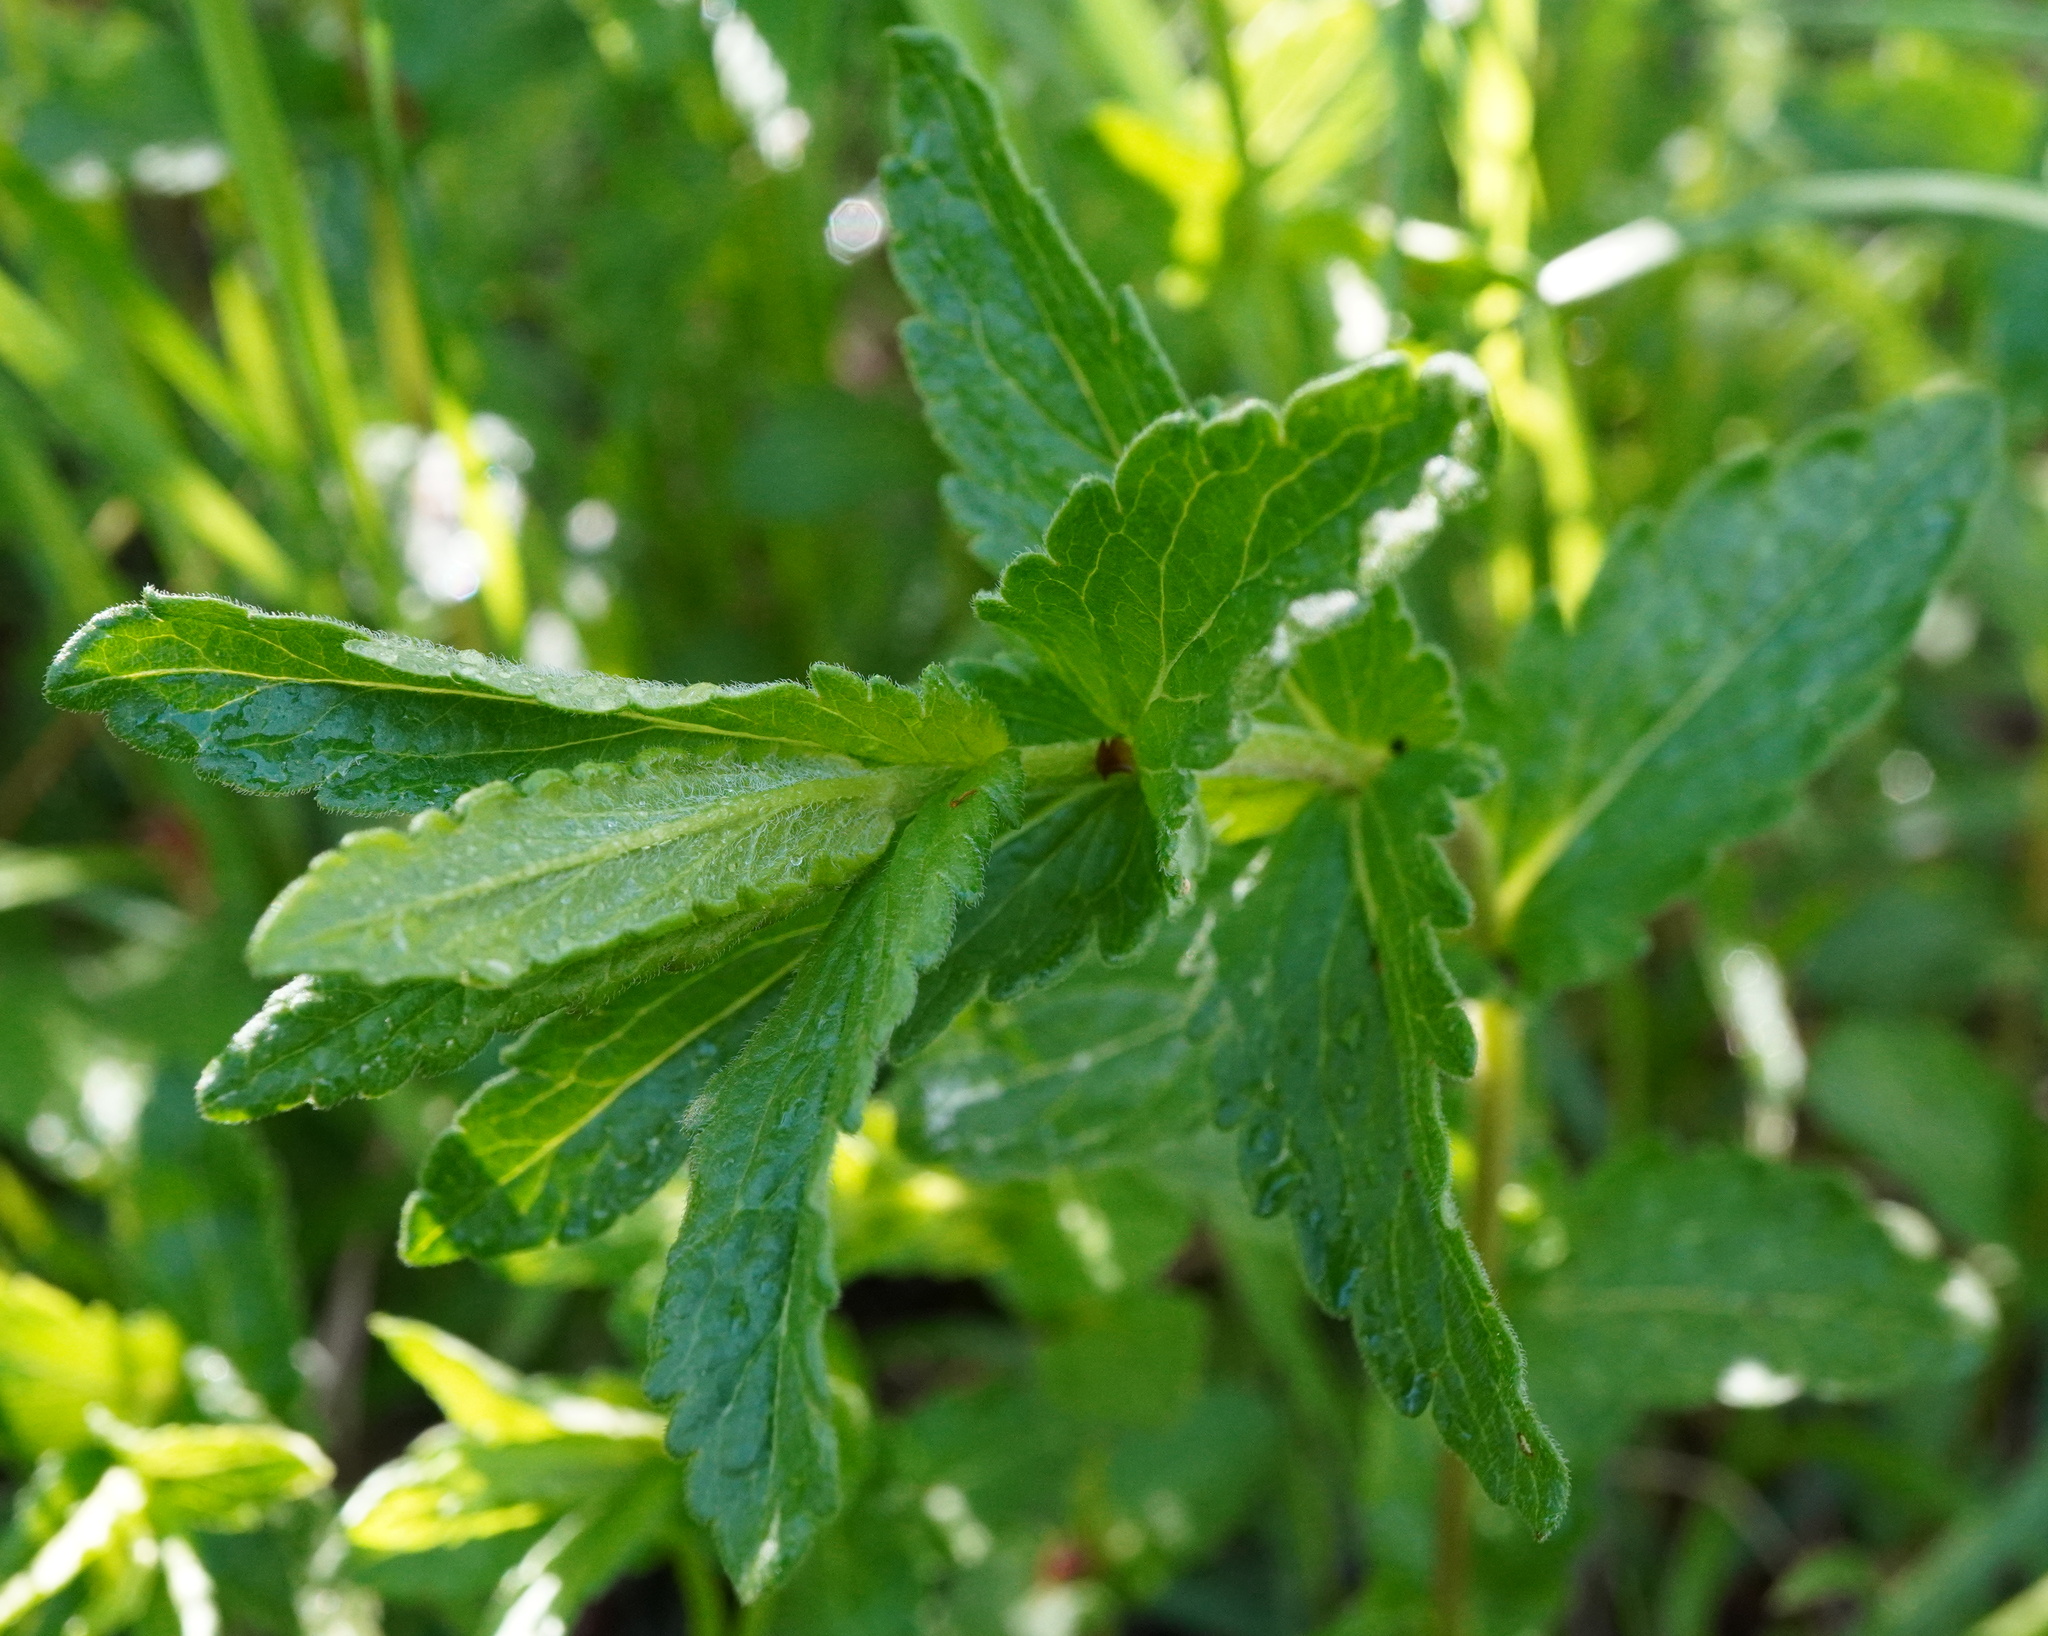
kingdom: Plantae
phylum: Tracheophyta
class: Magnoliopsida
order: Lamiales
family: Plantaginaceae
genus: Veronica
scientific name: Veronica teucrium
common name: Large speedwell
